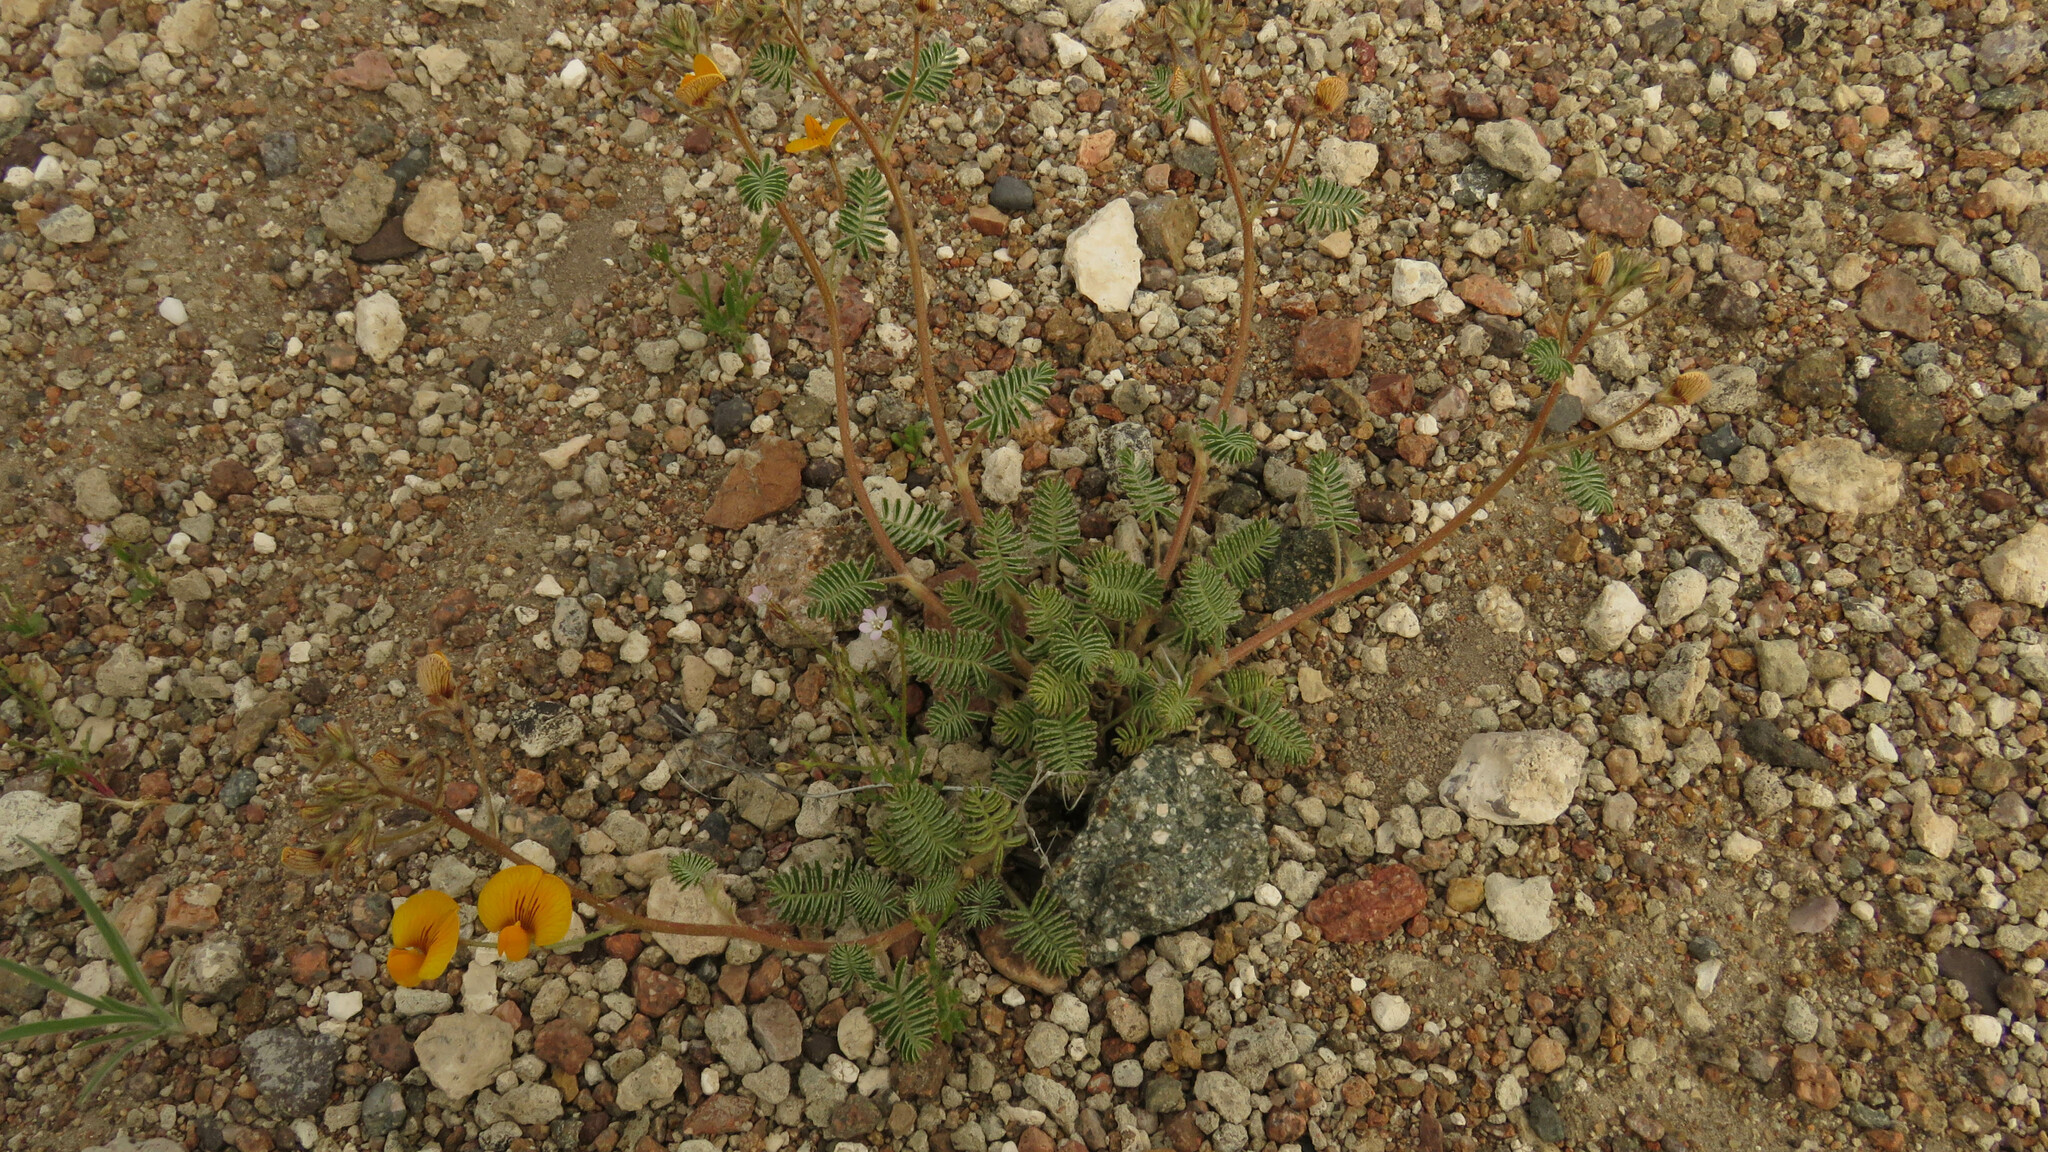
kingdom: Plantae
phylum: Tracheophyta
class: Magnoliopsida
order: Fabales
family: Fabaceae
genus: Adesmia
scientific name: Adesmia corymbosa
